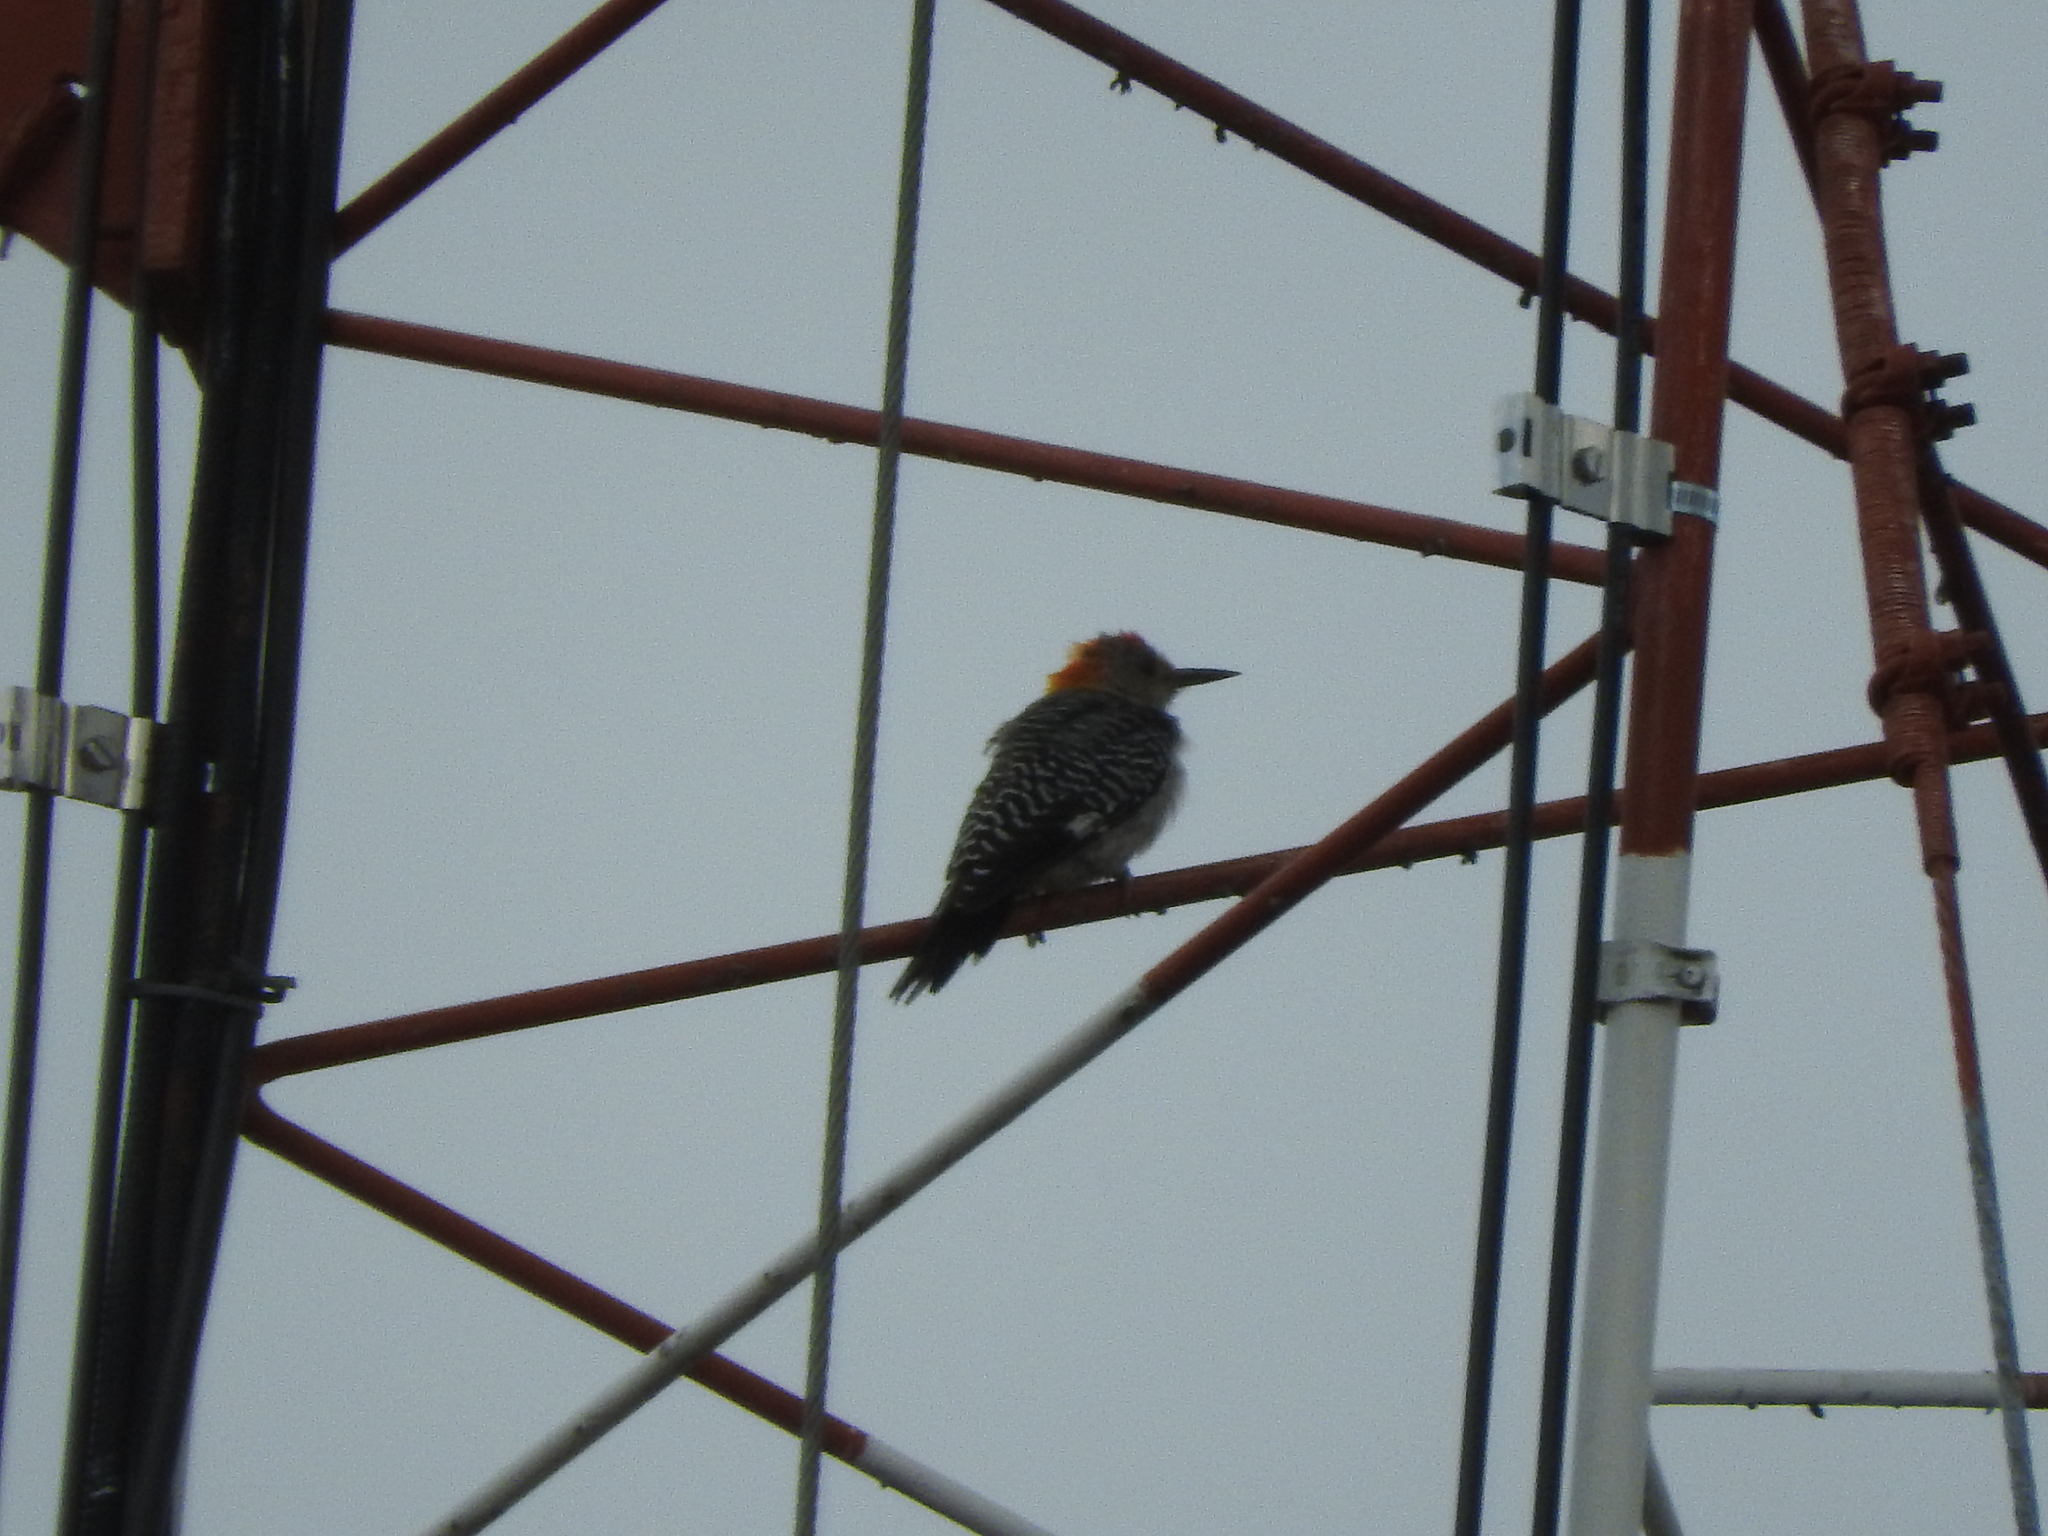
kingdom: Animalia
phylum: Chordata
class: Aves
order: Piciformes
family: Picidae
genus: Melanerpes
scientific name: Melanerpes aurifrons
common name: Golden-fronted woodpecker
